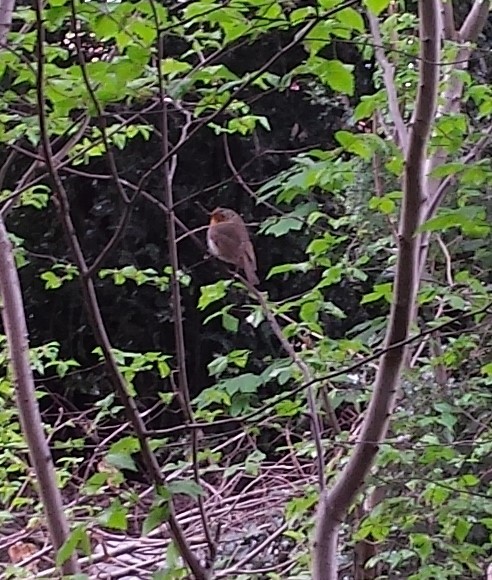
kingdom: Animalia
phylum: Chordata
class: Aves
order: Passeriformes
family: Muscicapidae
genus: Erithacus
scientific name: Erithacus rubecula
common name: European robin
